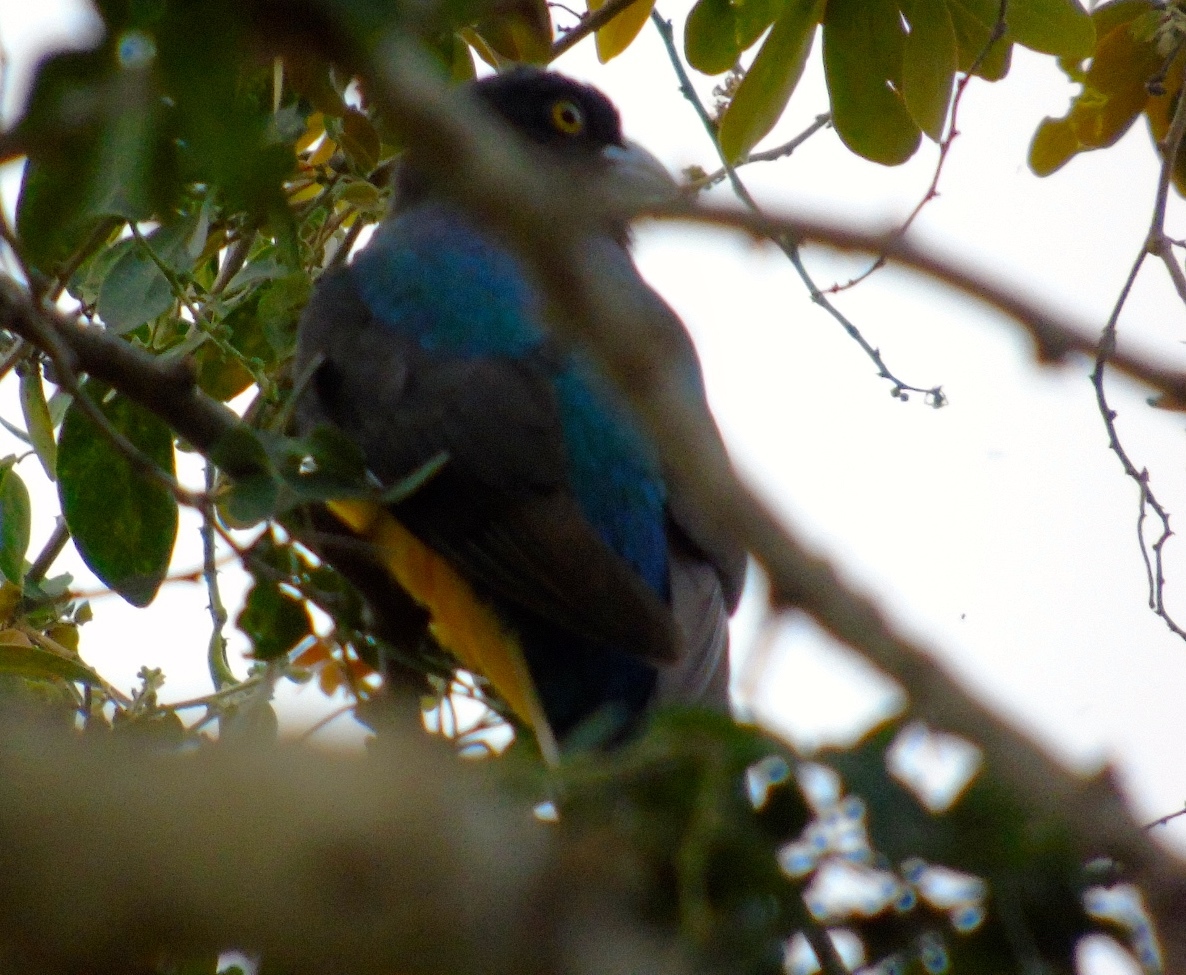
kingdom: Animalia
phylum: Chordata
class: Aves
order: Trogoniformes
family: Trogonidae
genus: Trogon
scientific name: Trogon citreolus
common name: Citreoline trogon
